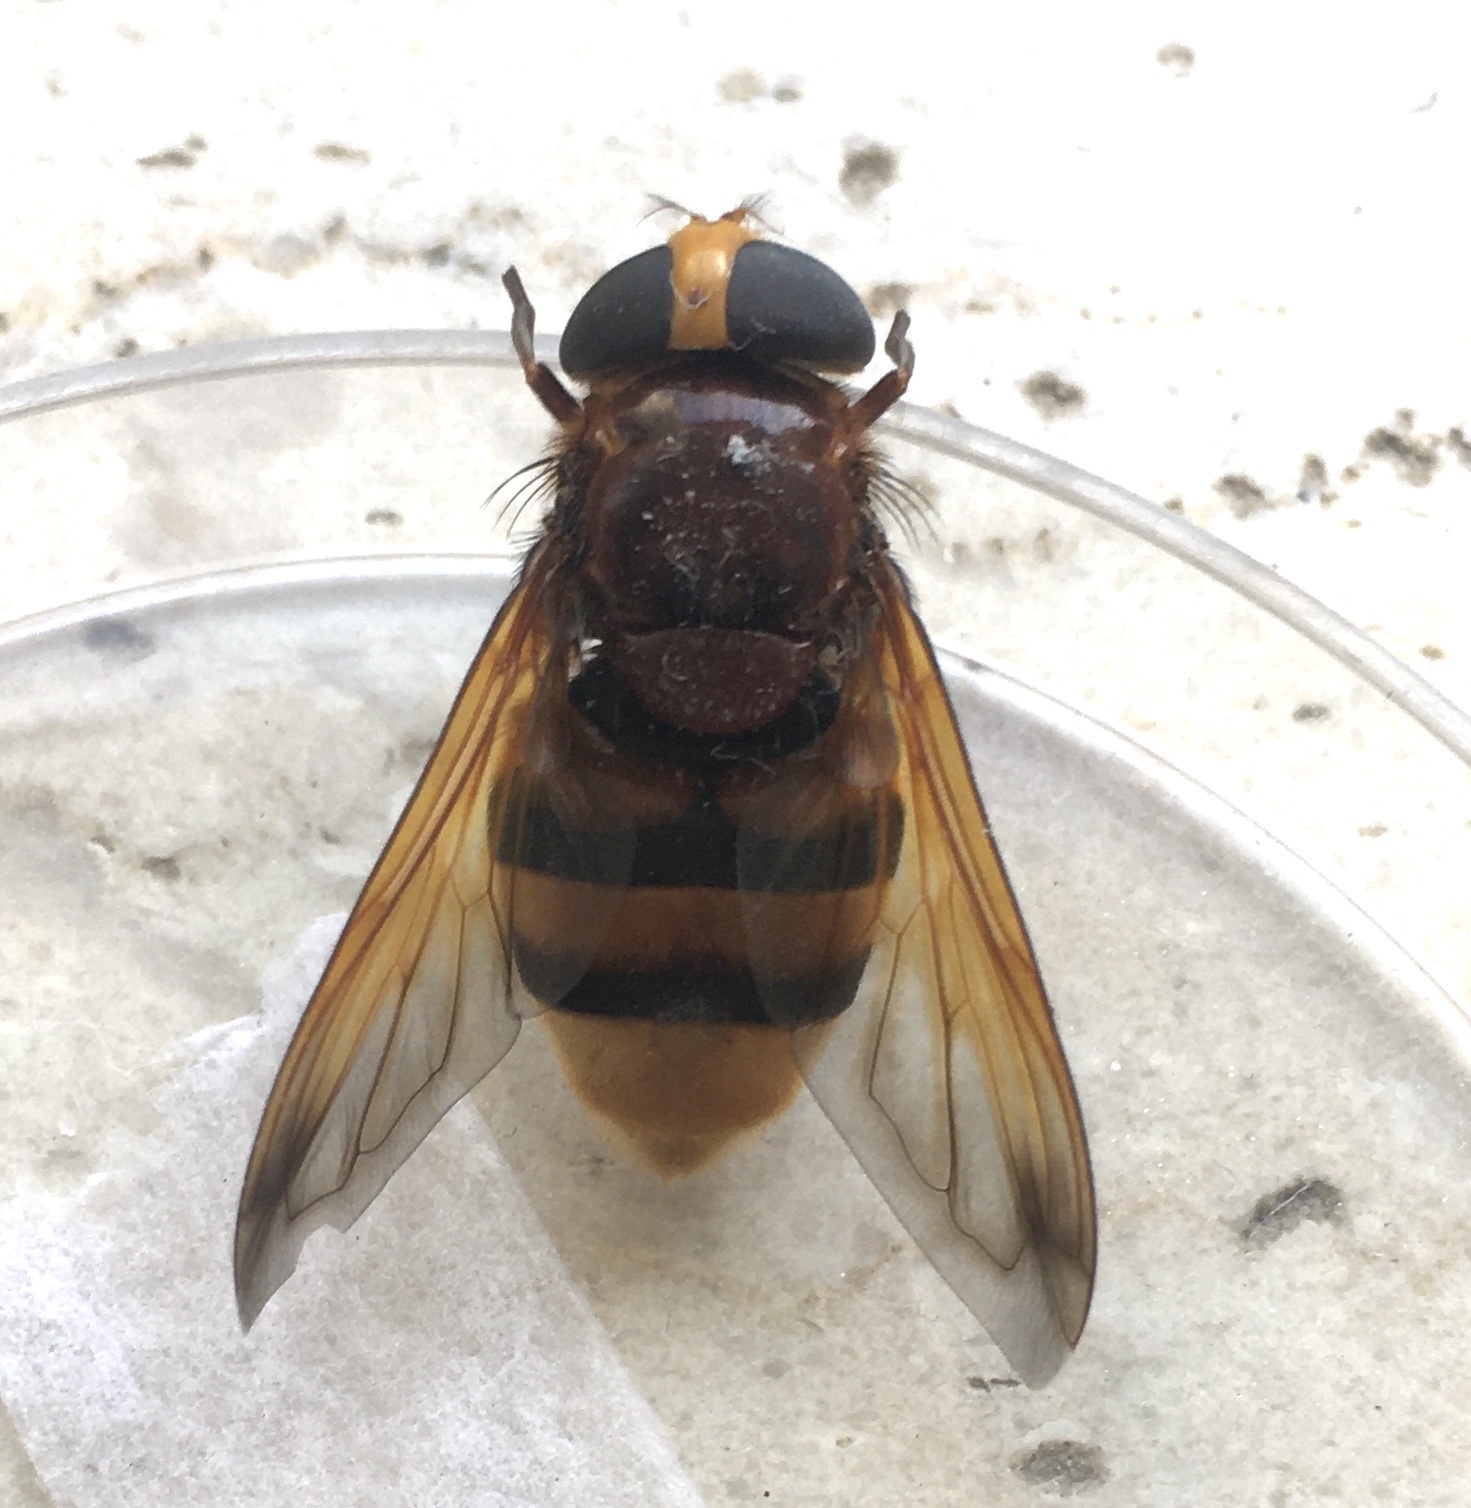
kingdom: Animalia
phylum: Arthropoda
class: Insecta
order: Diptera
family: Syrphidae
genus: Volucella
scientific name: Volucella zonaria
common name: Hornet hoverfly
